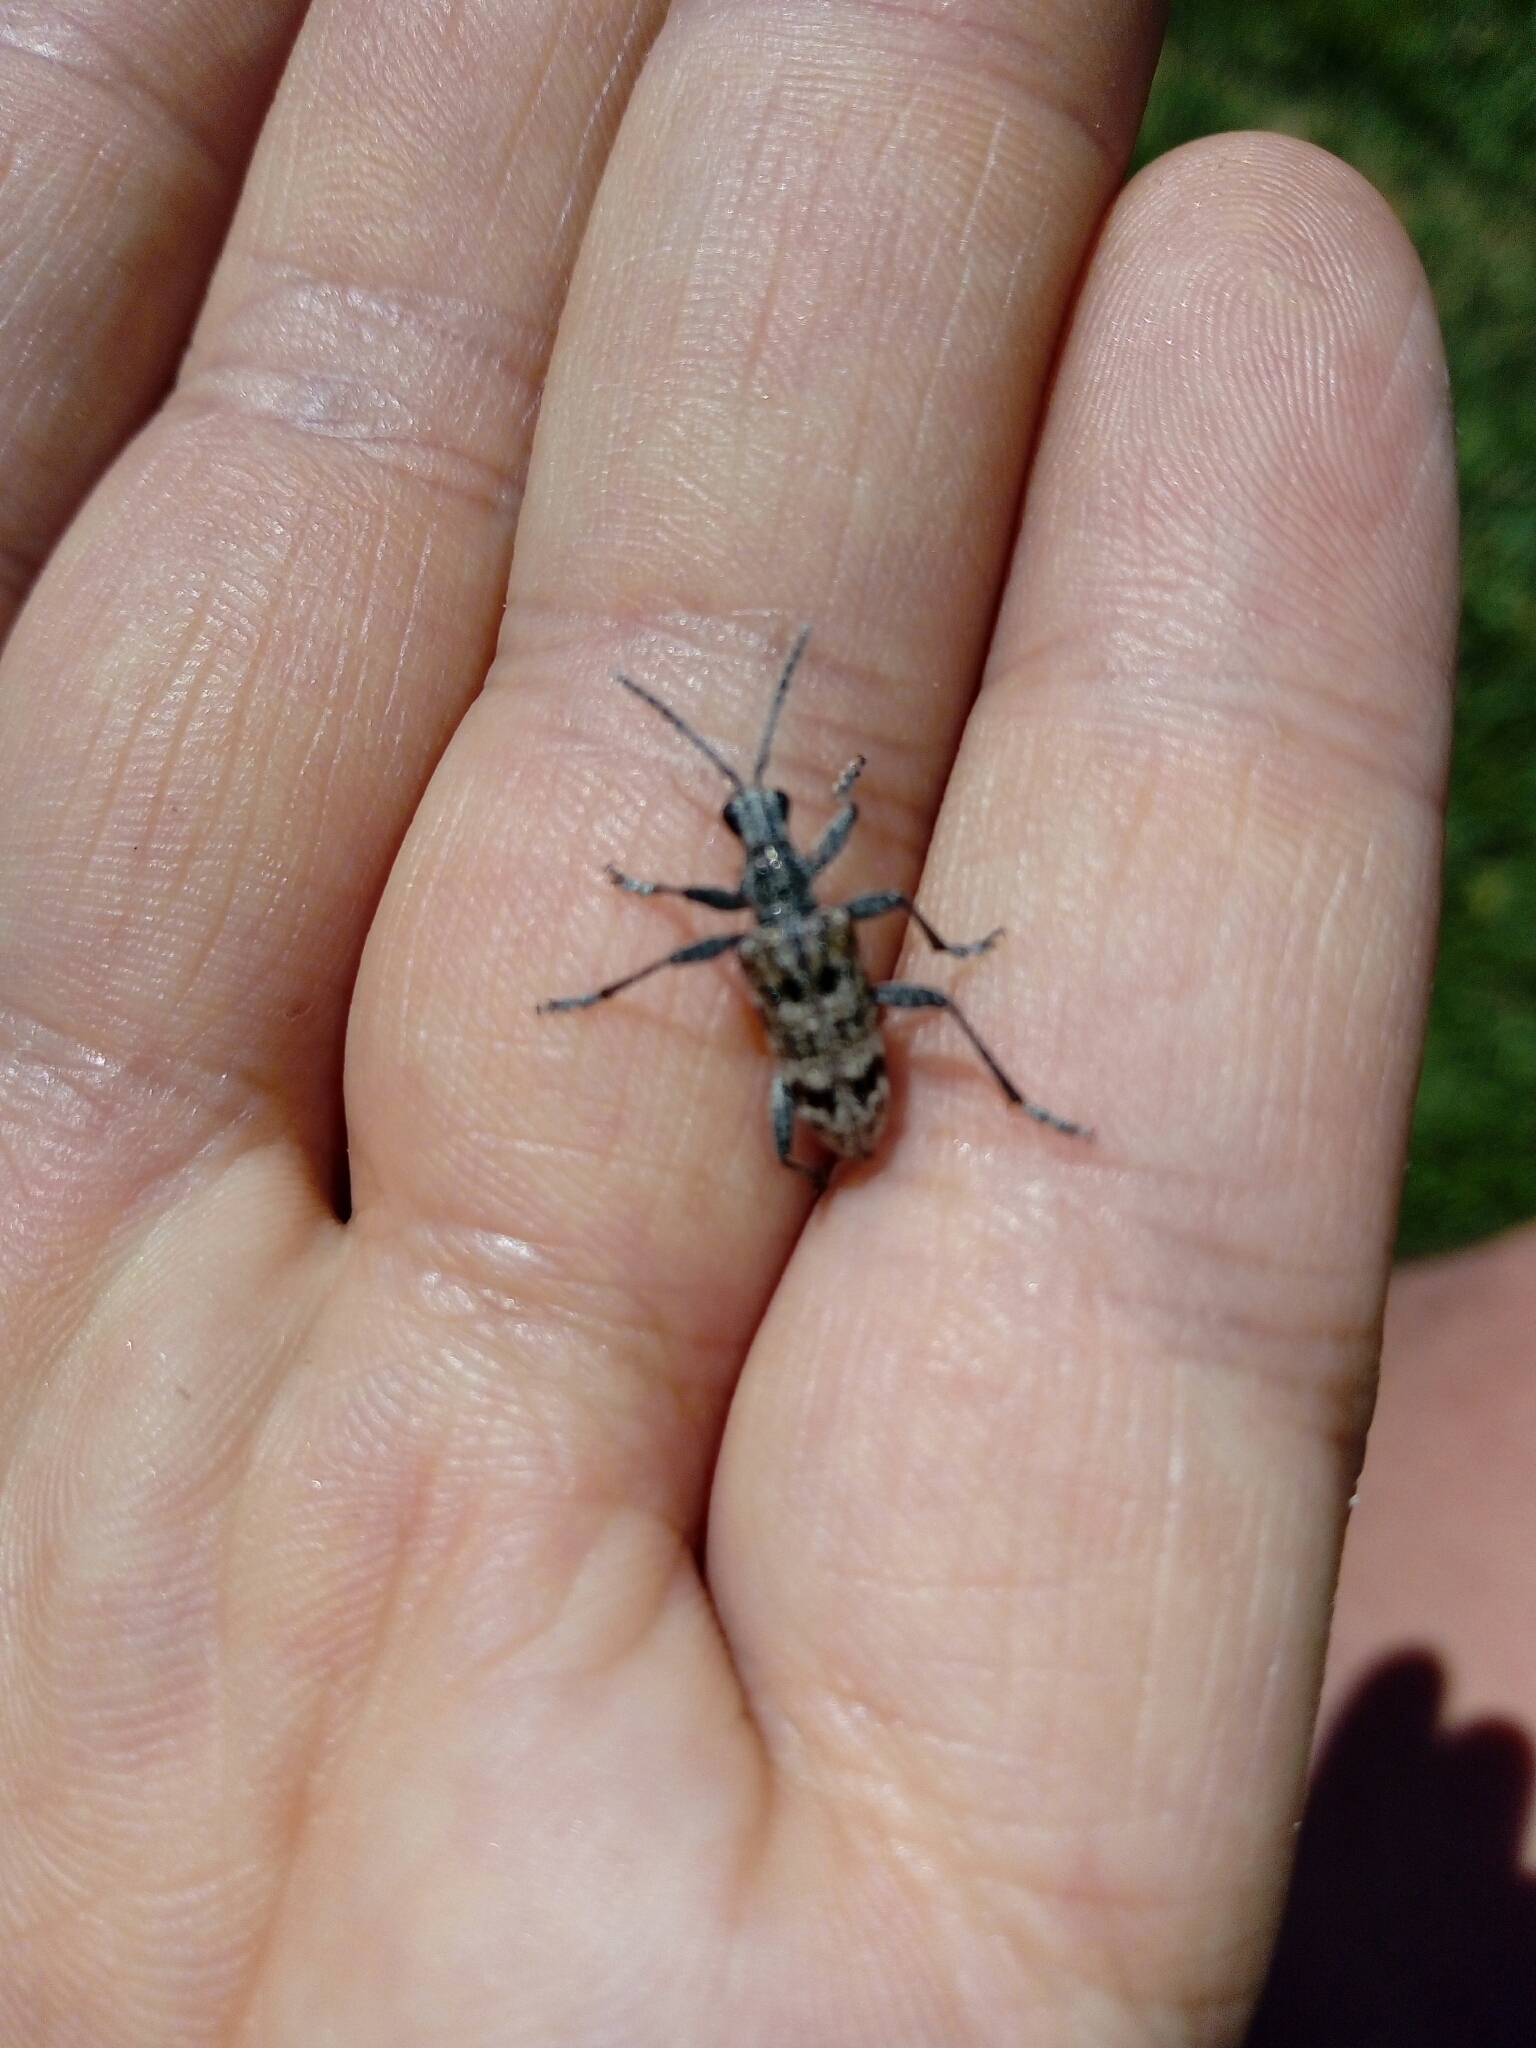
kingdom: Animalia
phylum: Arthropoda
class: Insecta
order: Coleoptera
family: Cerambycidae
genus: Rhagium
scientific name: Rhagium inquisitor
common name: Ribbed pine borer
